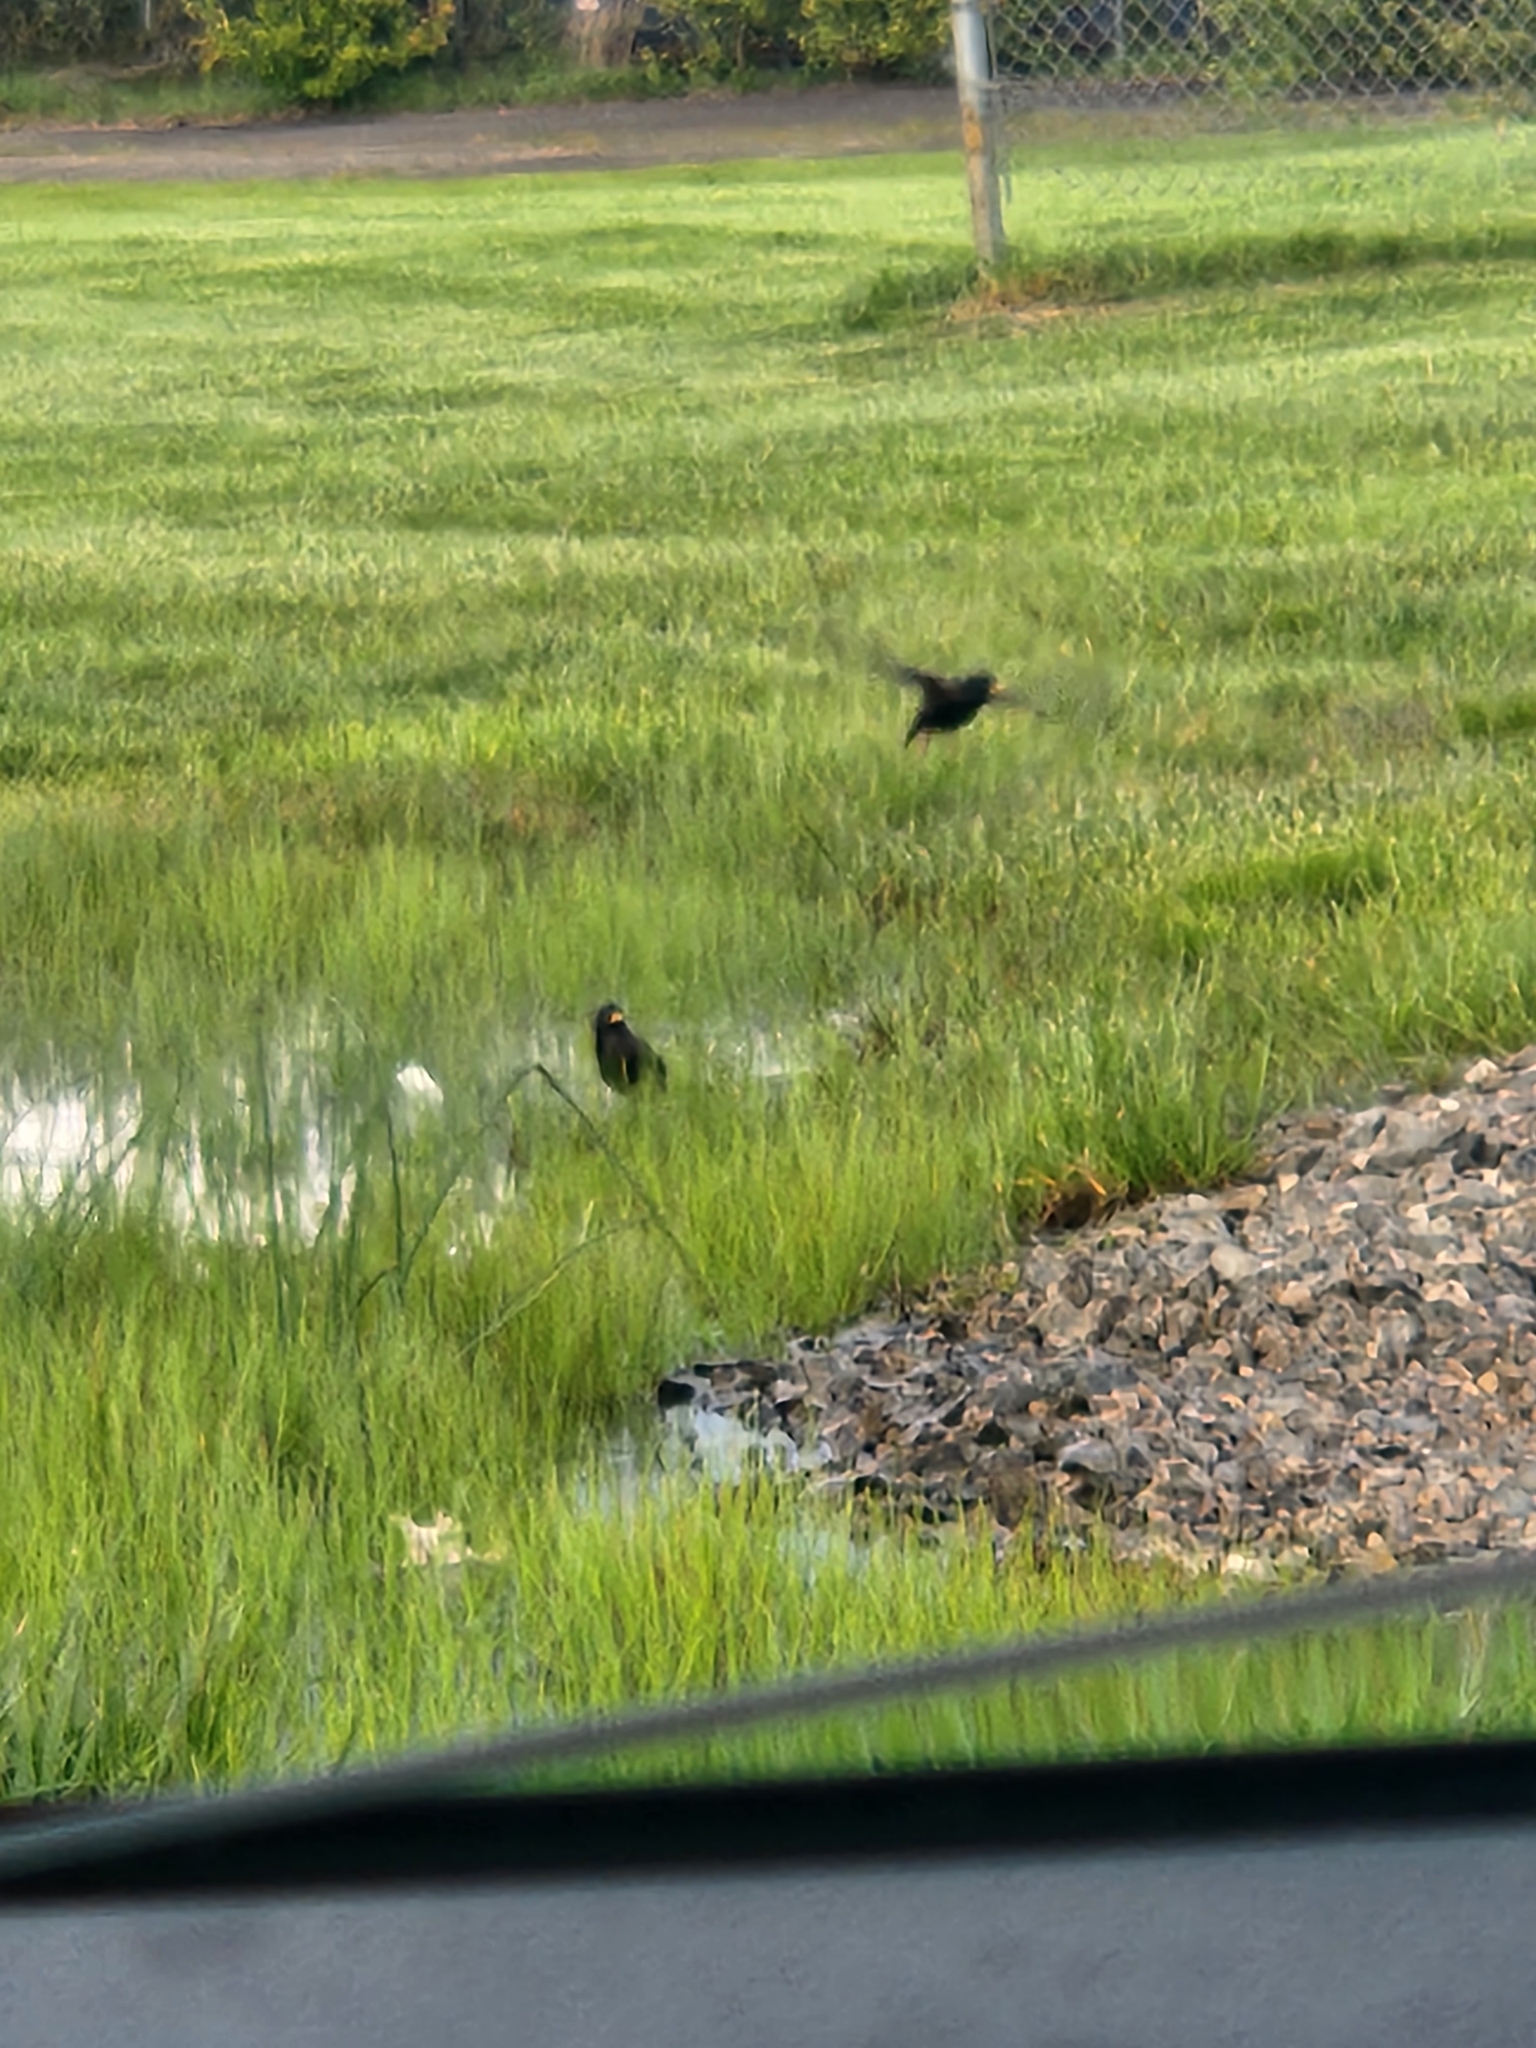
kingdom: Animalia
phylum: Chordata
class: Aves
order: Passeriformes
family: Sturnidae
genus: Sturnus
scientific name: Sturnus vulgaris
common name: Common starling
